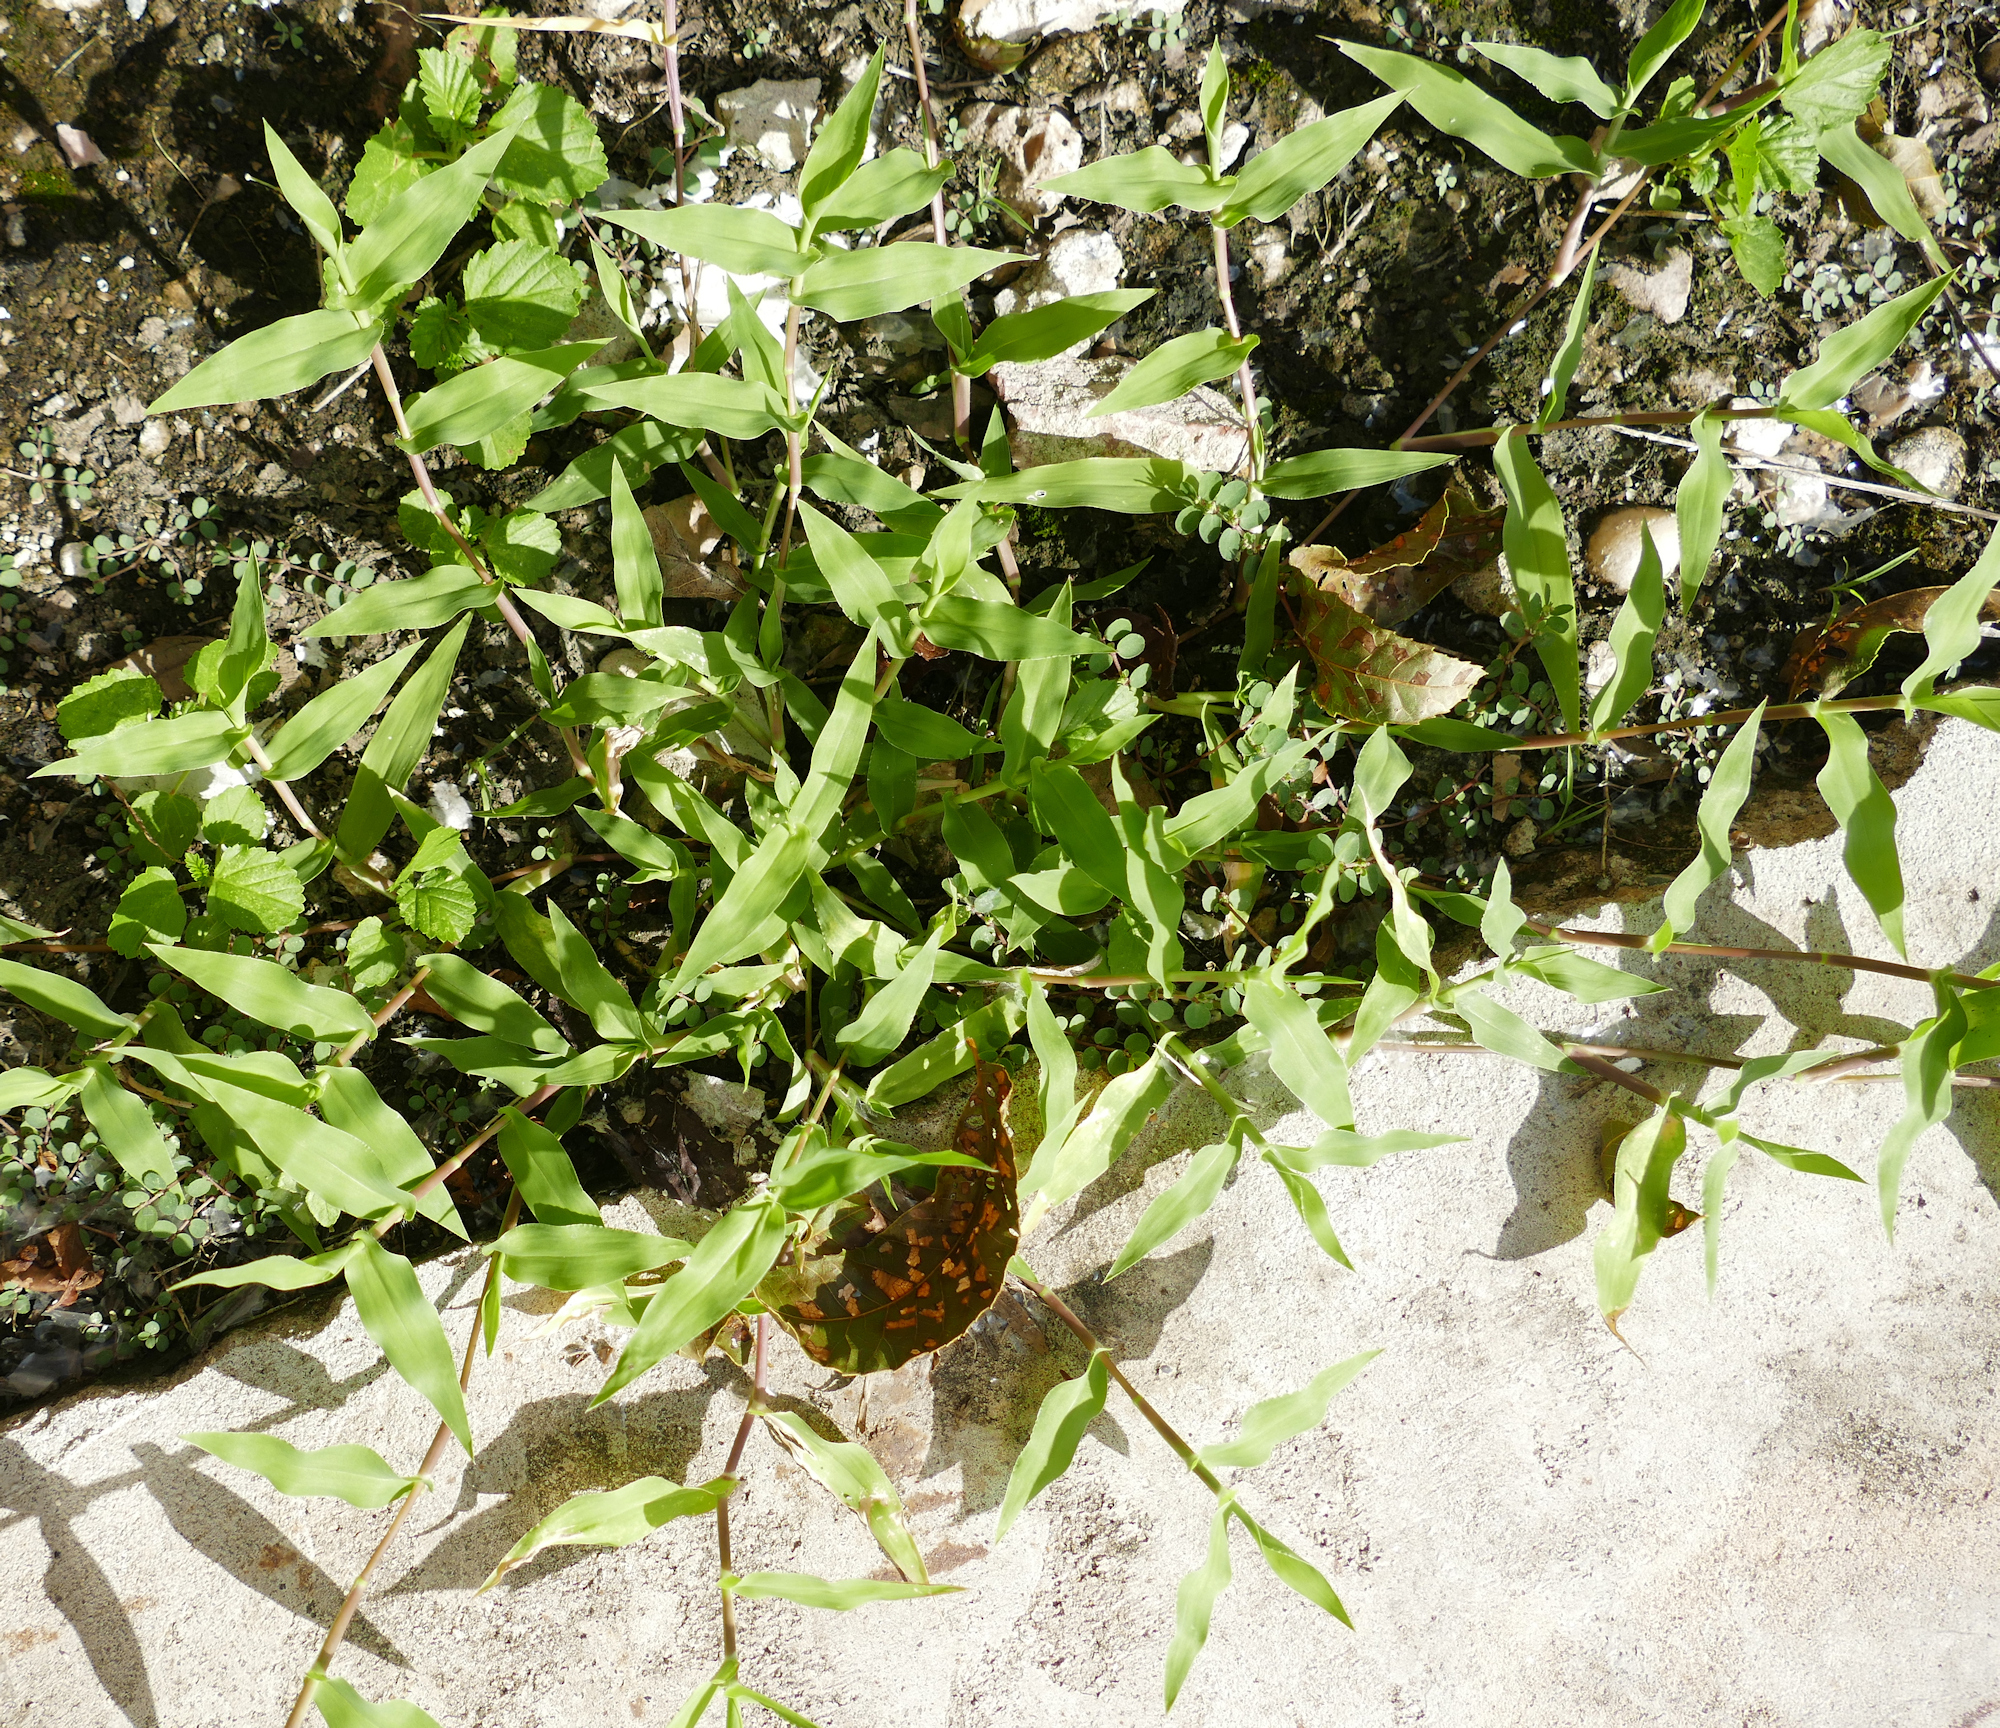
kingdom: Plantae
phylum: Tracheophyta
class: Liliopsida
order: Poales
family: Poaceae
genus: Urochloa
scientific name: Urochloa reptans
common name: Sprawling signalgrass
